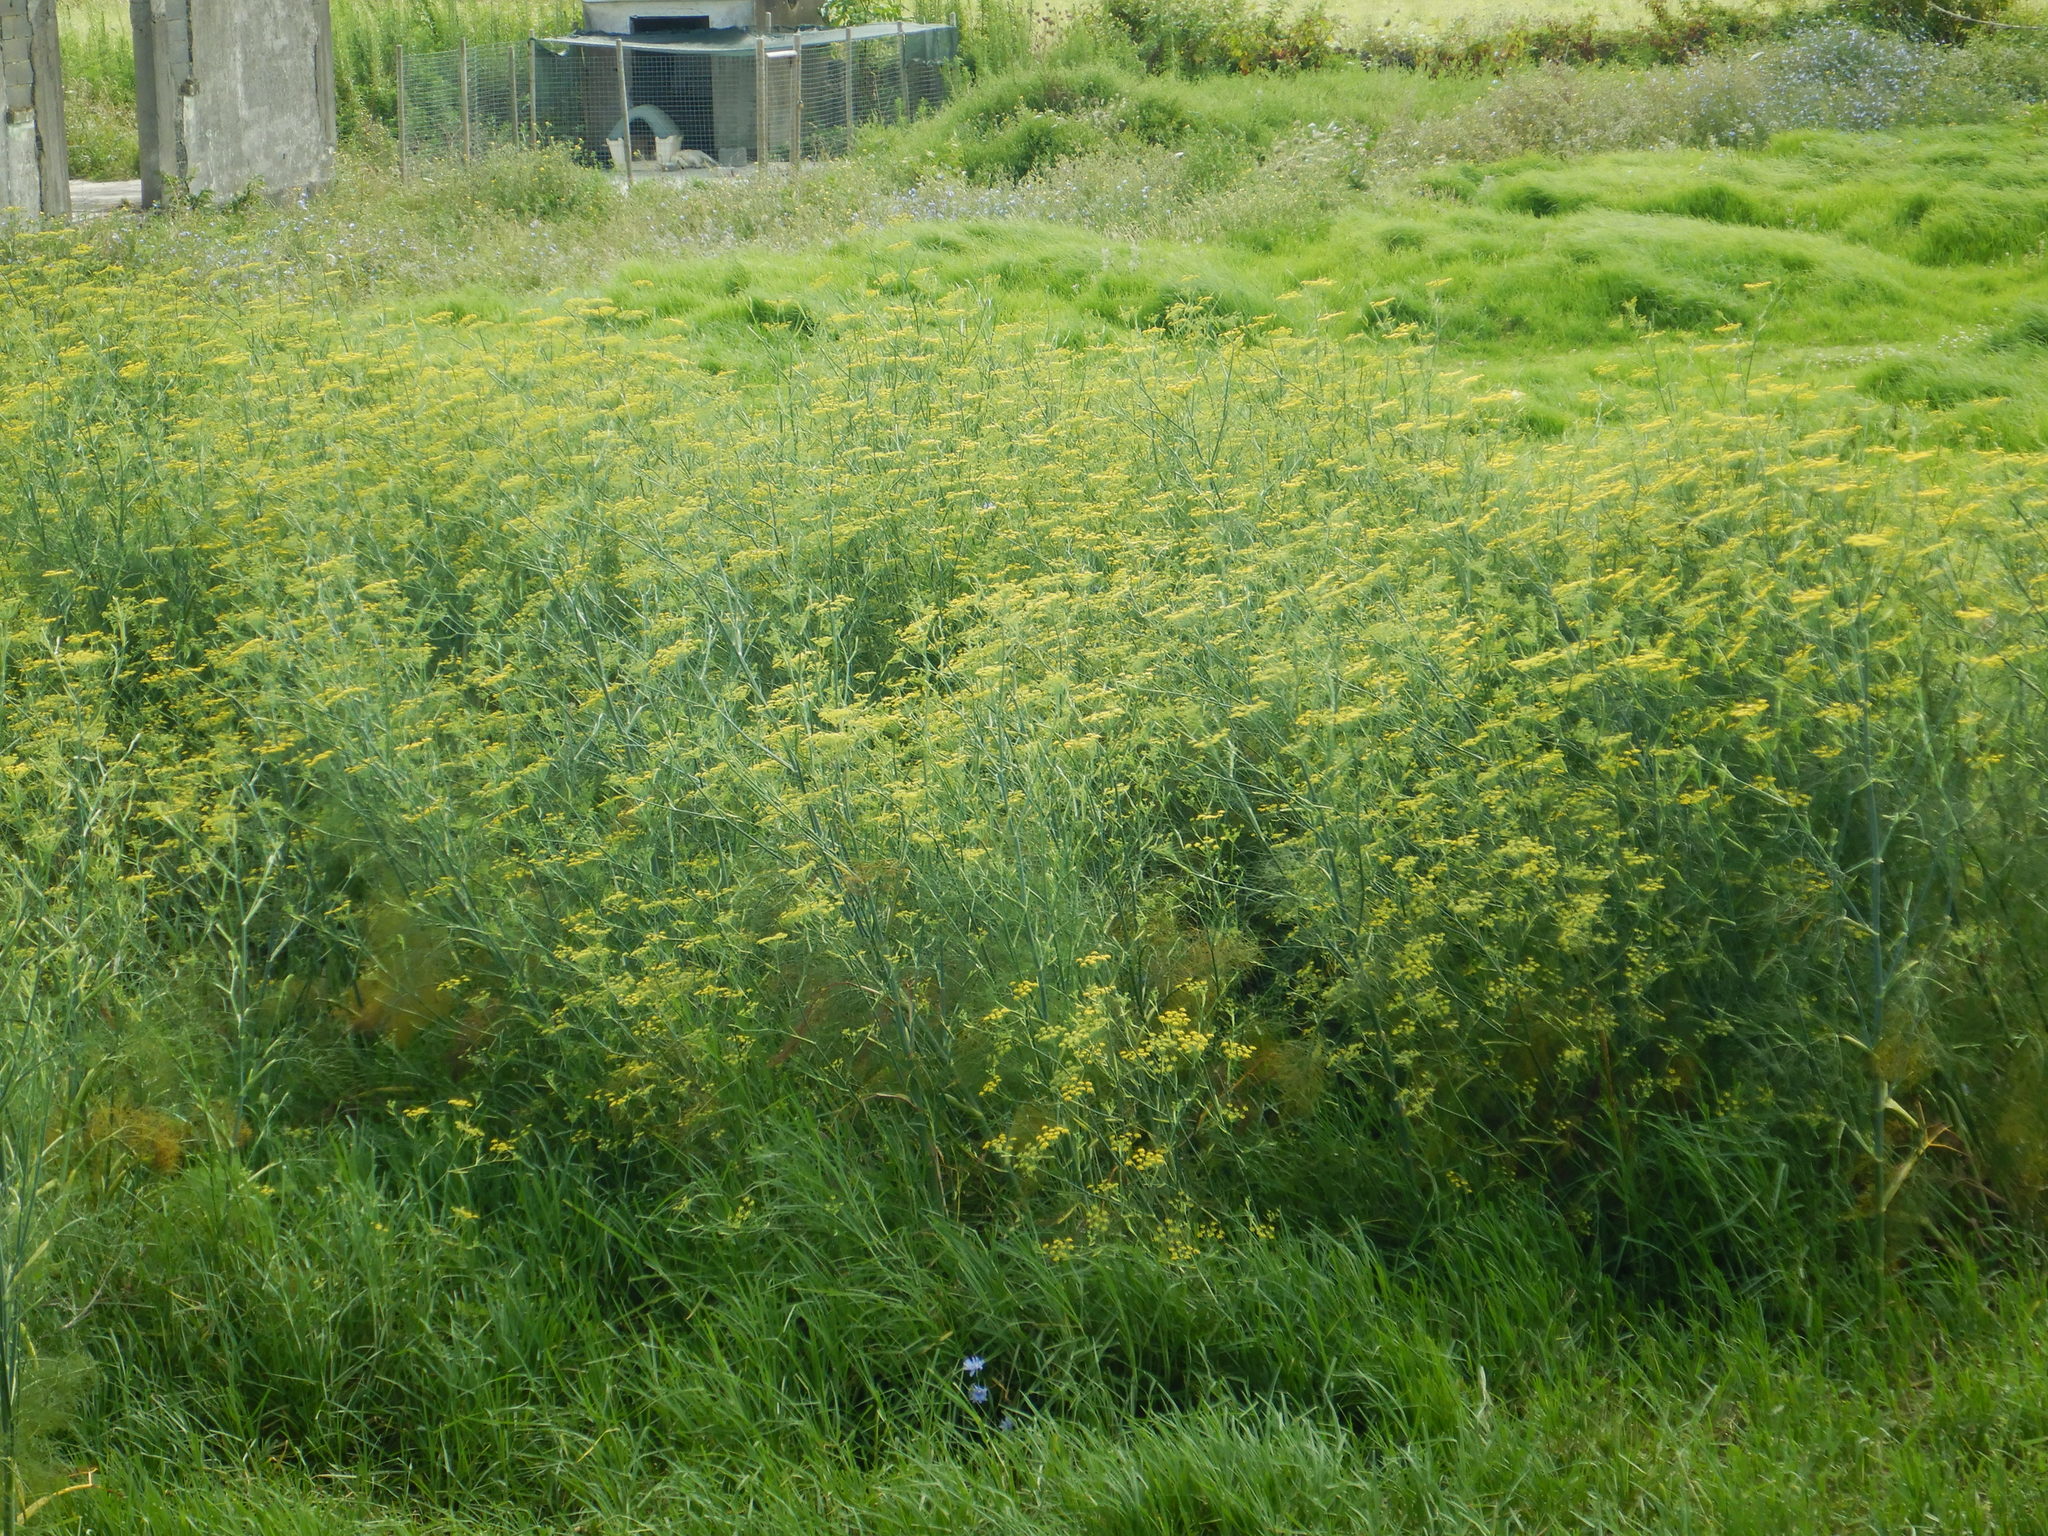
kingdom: Plantae
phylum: Tracheophyta
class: Magnoliopsida
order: Apiales
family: Apiaceae
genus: Foeniculum
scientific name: Foeniculum vulgare
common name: Fennel
